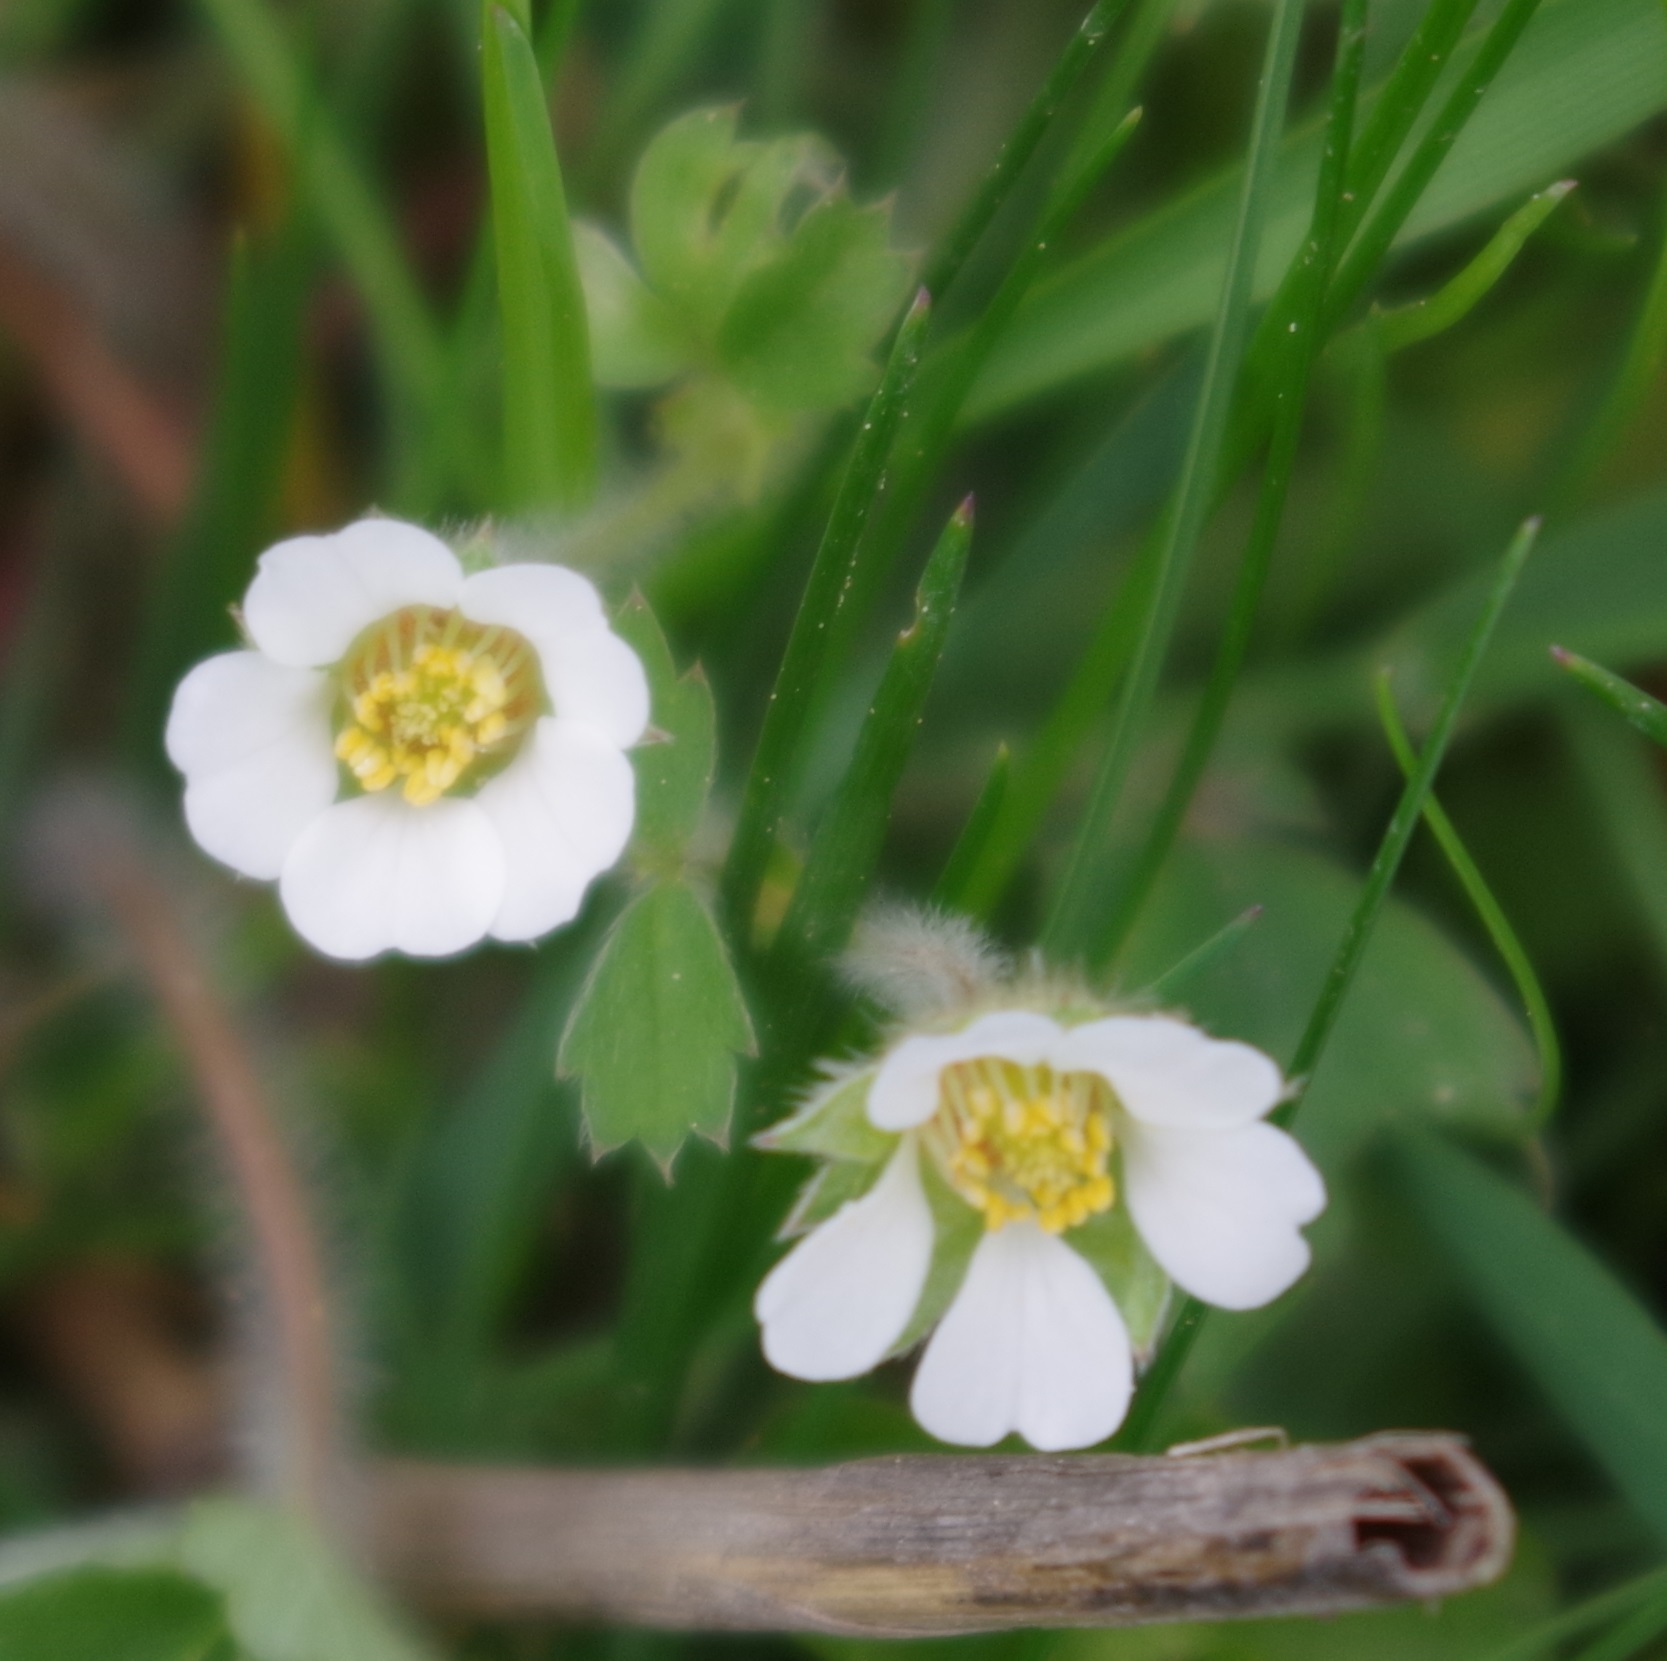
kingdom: Plantae
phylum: Tracheophyta
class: Magnoliopsida
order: Rosales
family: Rosaceae
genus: Potentilla
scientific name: Potentilla sterilis
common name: Barren strawberry
